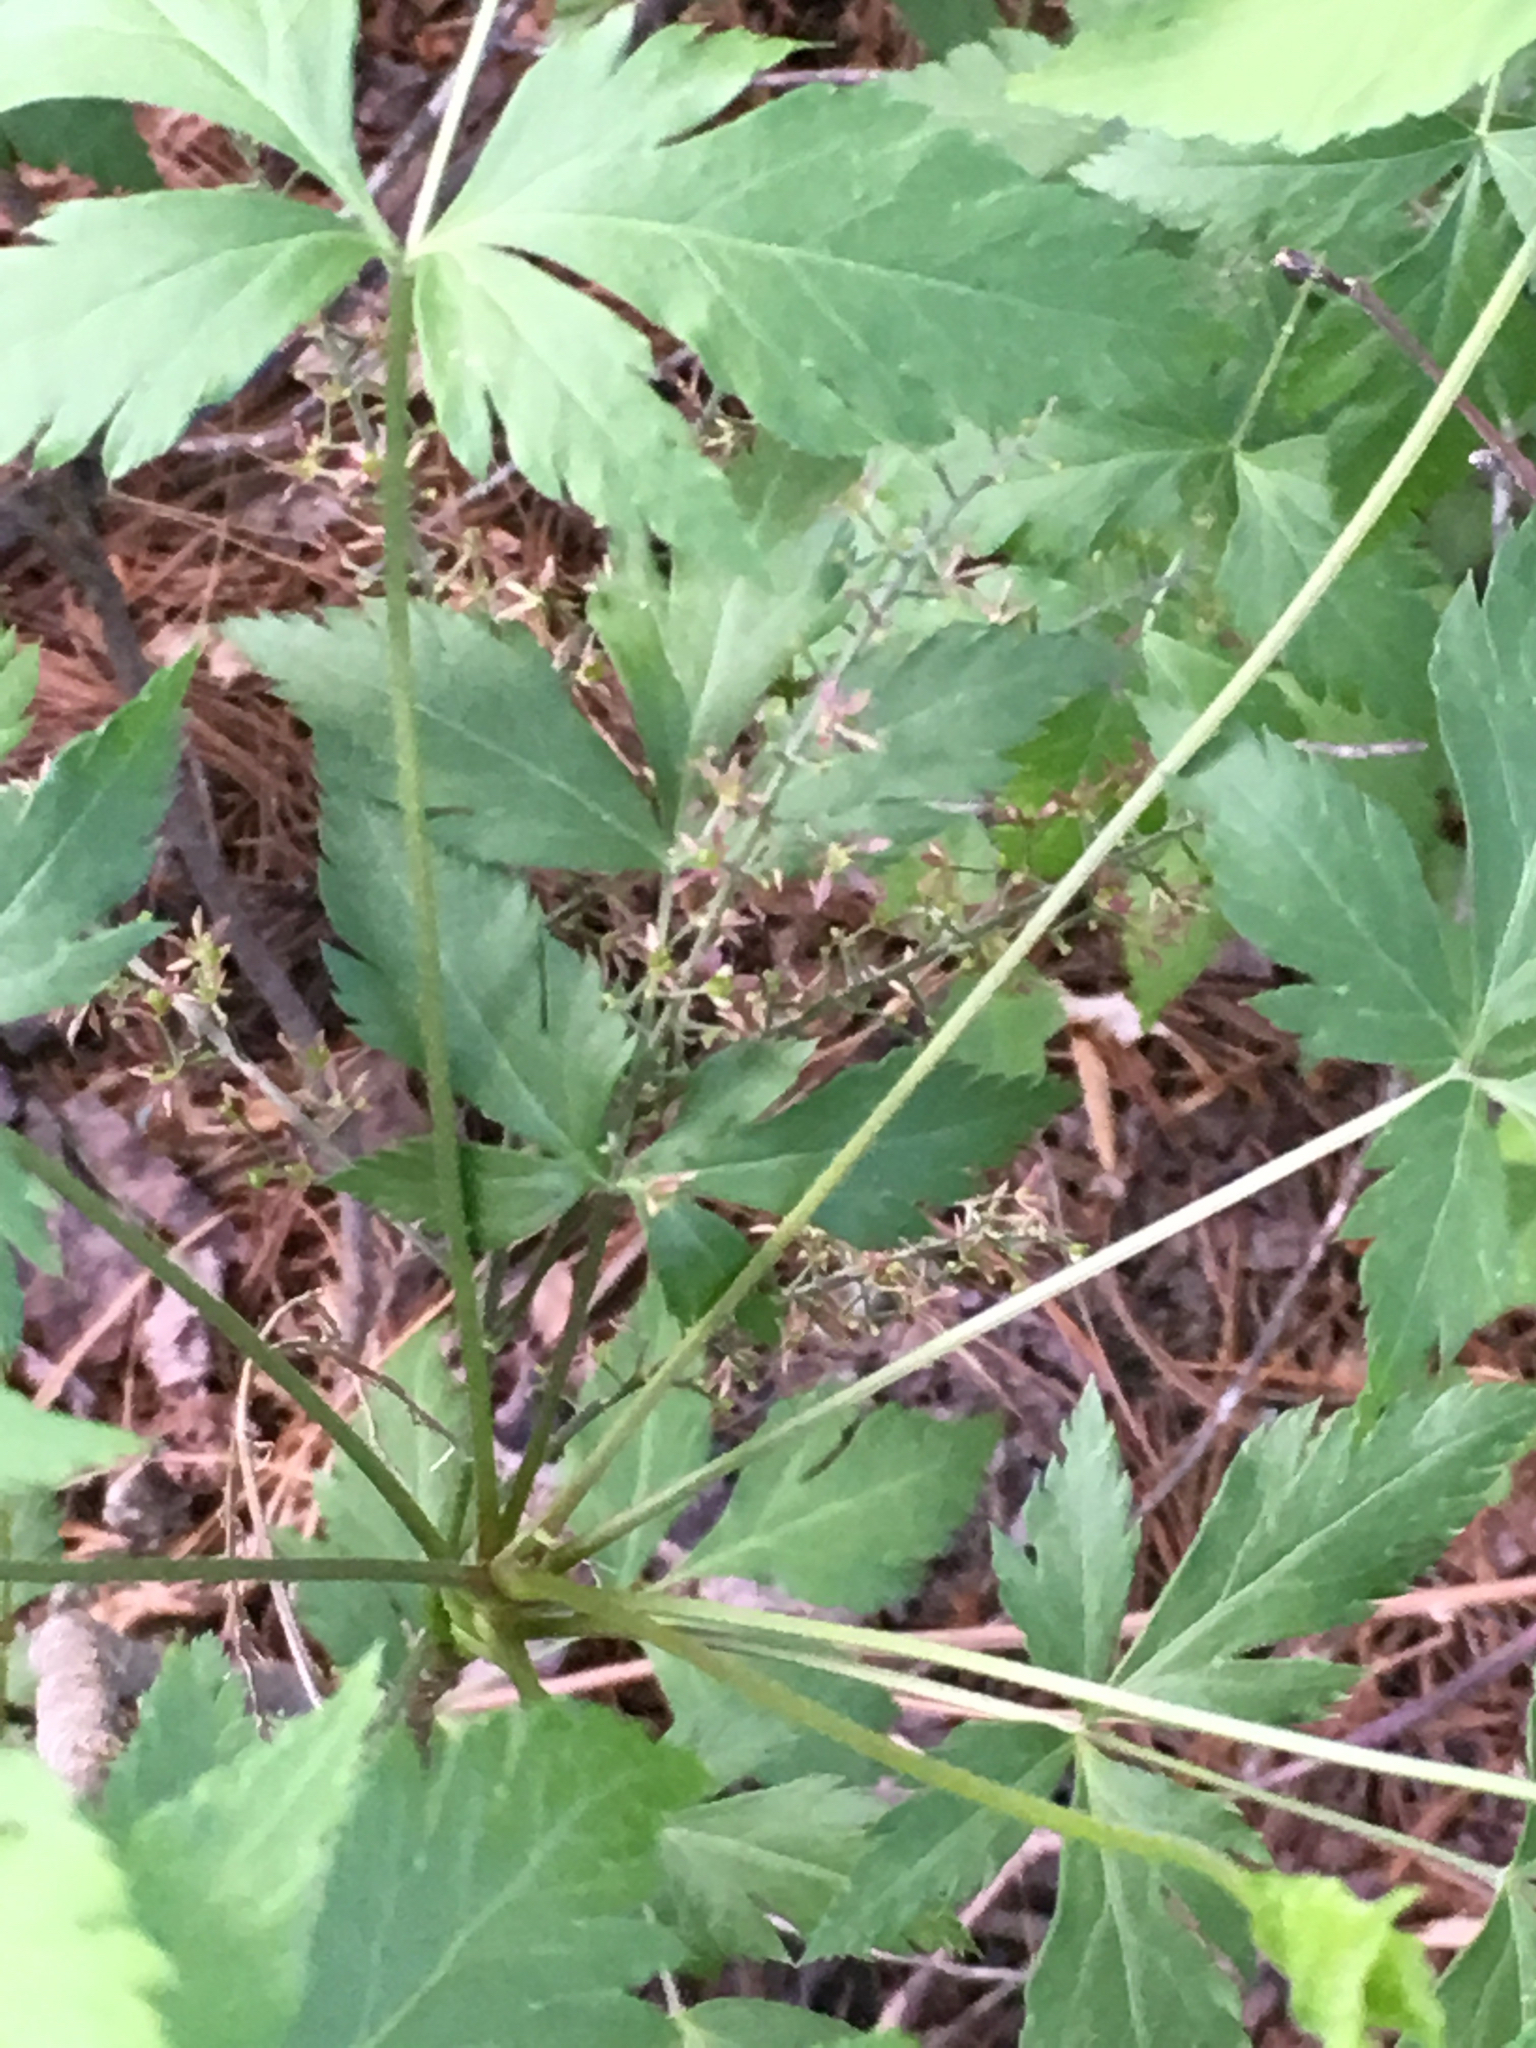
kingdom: Plantae
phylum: Tracheophyta
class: Magnoliopsida
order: Ranunculales
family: Ranunculaceae
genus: Xanthorhiza
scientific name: Xanthorhiza simplicissima
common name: Yellowroot
